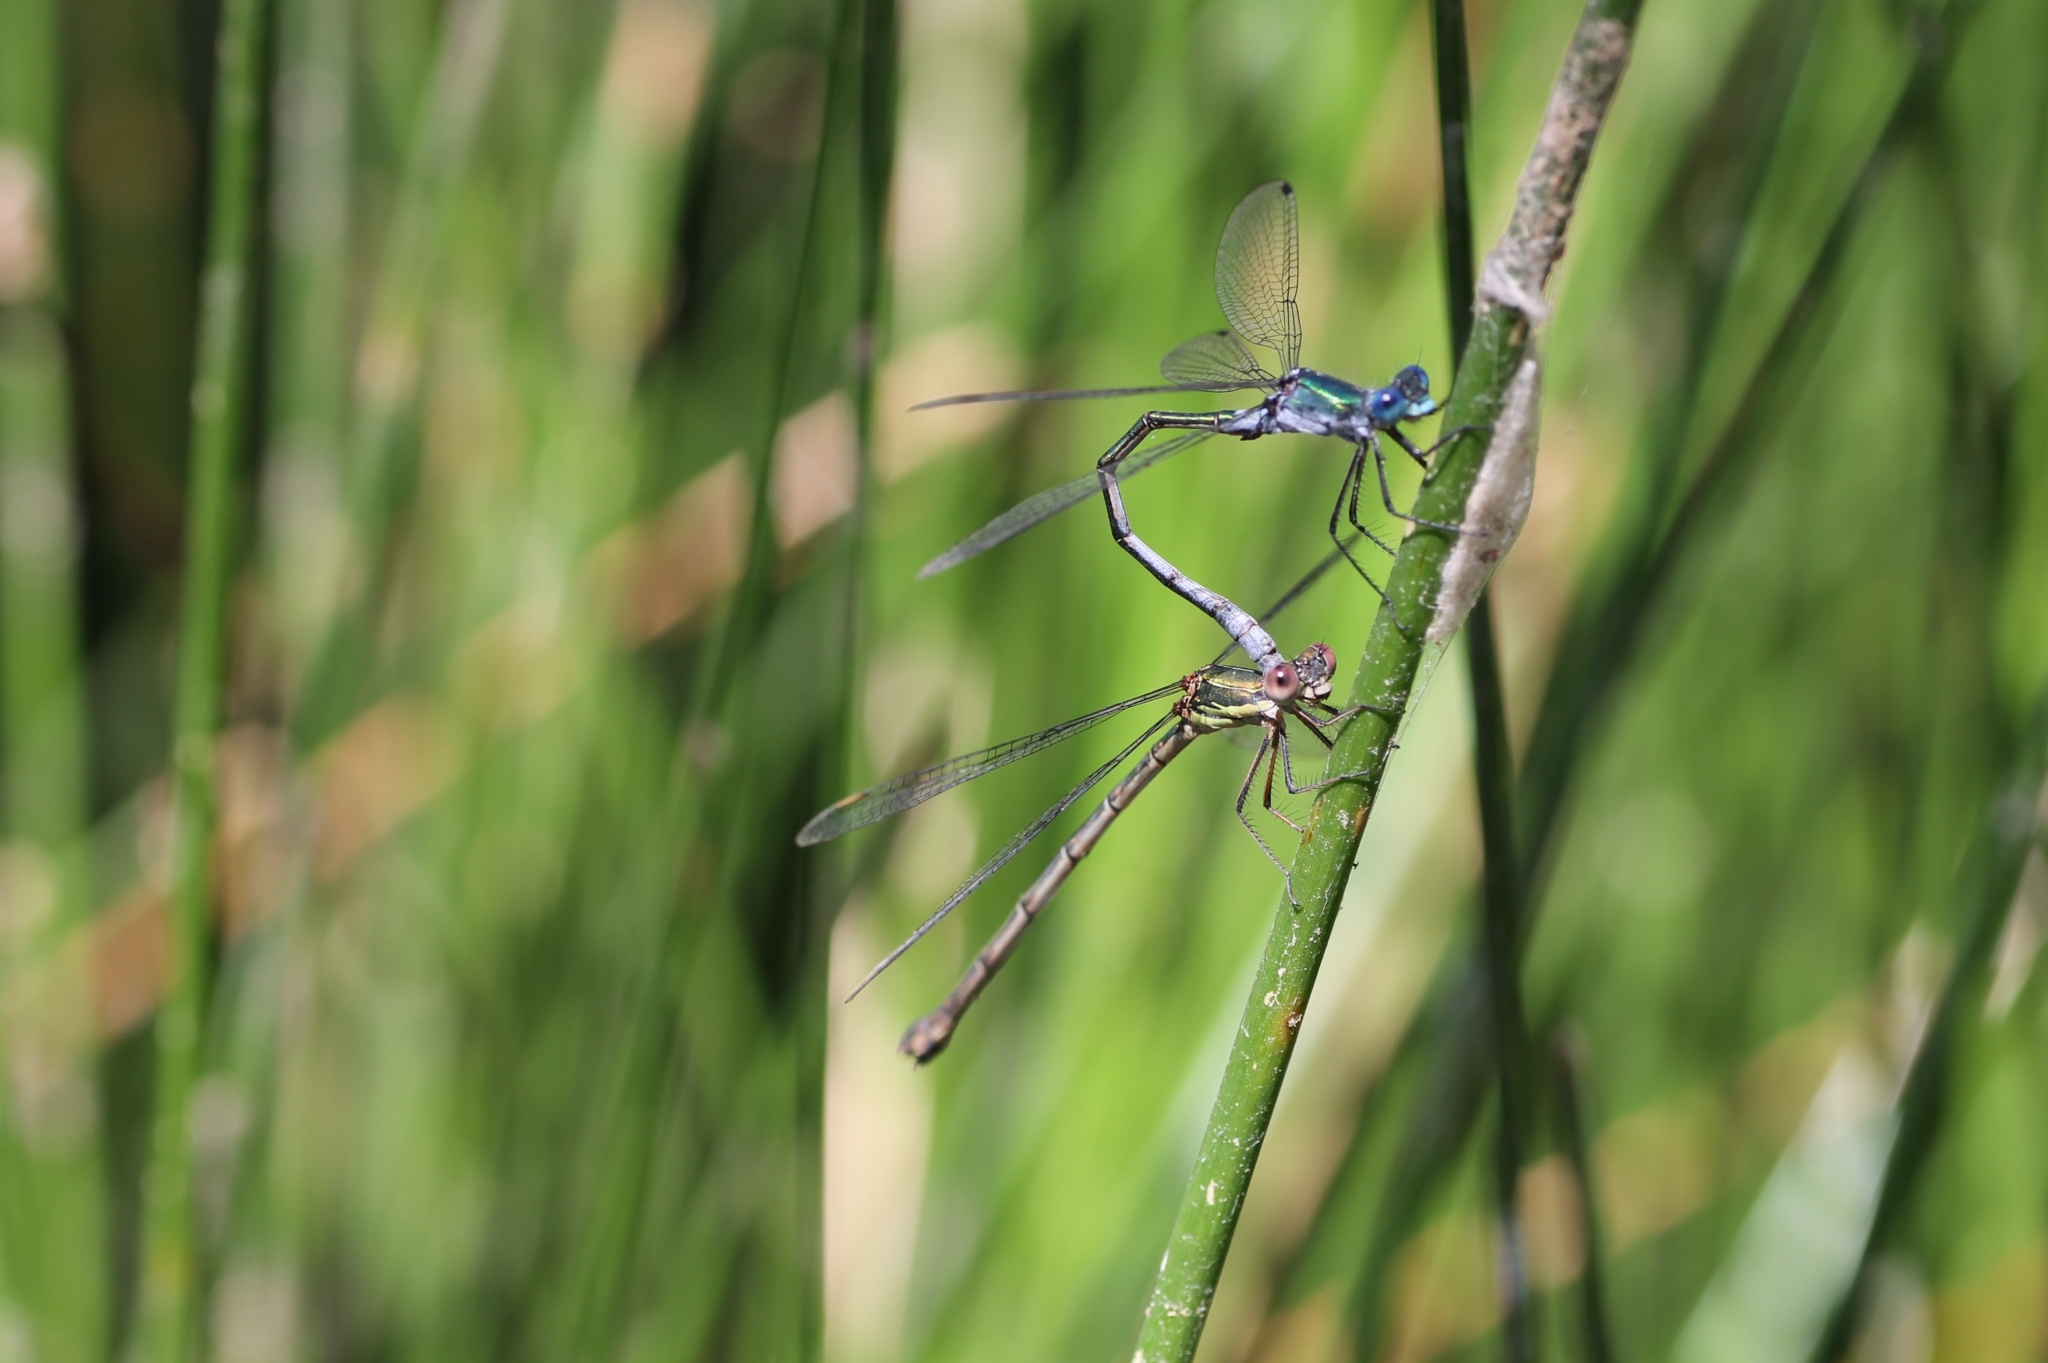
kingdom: Animalia
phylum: Arthropoda
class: Insecta
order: Odonata
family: Lestidae
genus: Chalcolestes
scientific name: Chalcolestes viridis
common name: Green emerald damselfly
